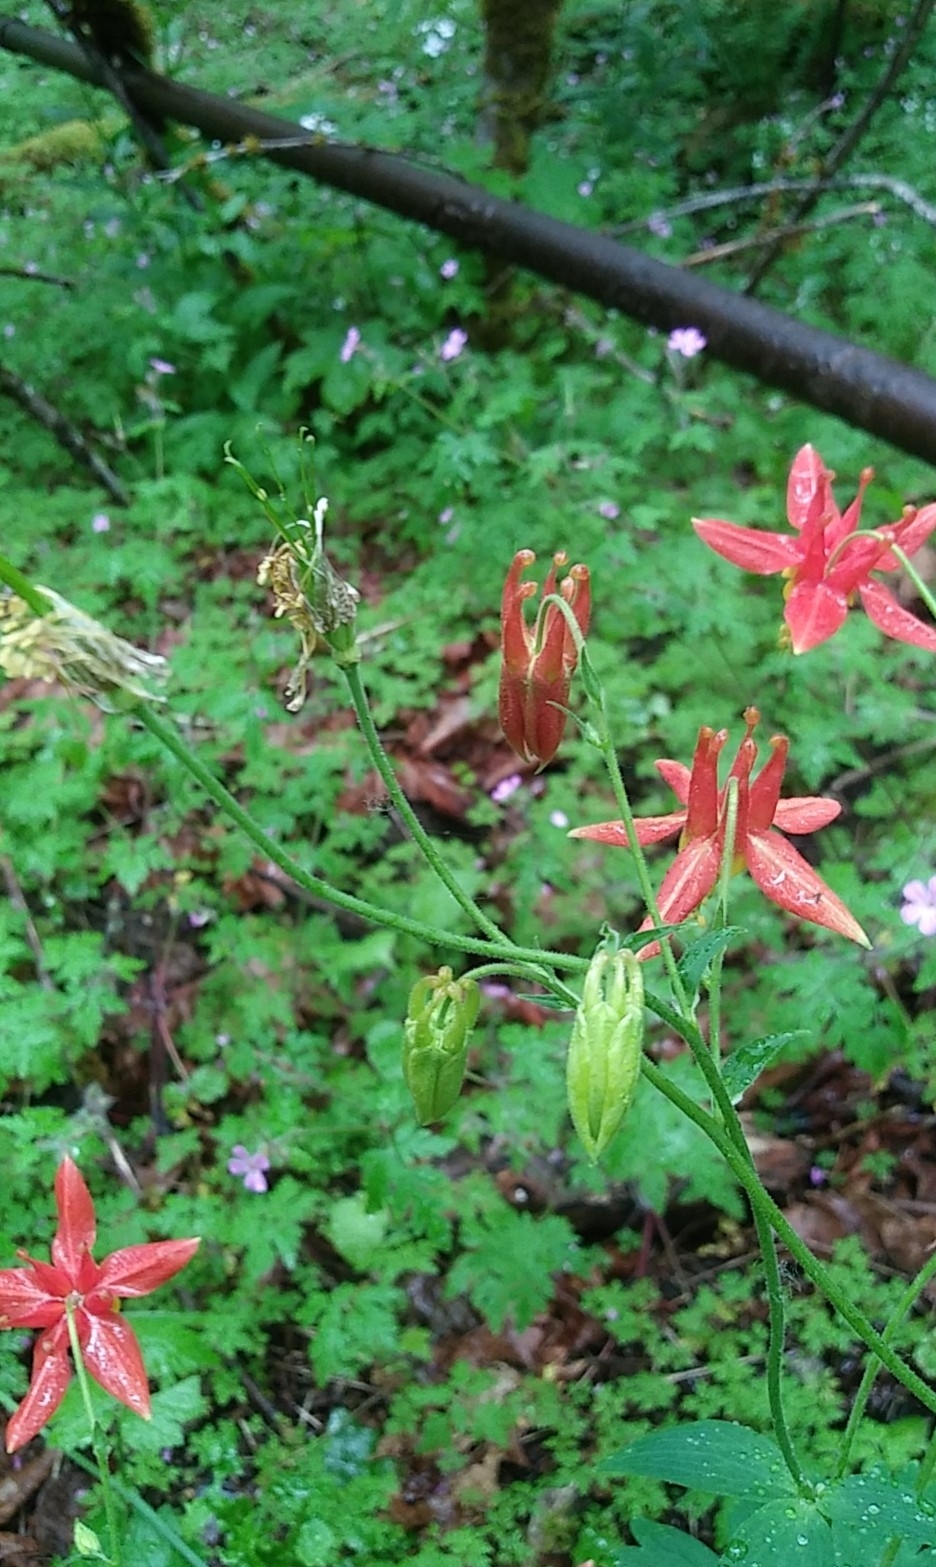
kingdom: Plantae
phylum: Tracheophyta
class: Magnoliopsida
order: Ranunculales
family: Ranunculaceae
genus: Aquilegia
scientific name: Aquilegia formosa
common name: Sitka columbine
